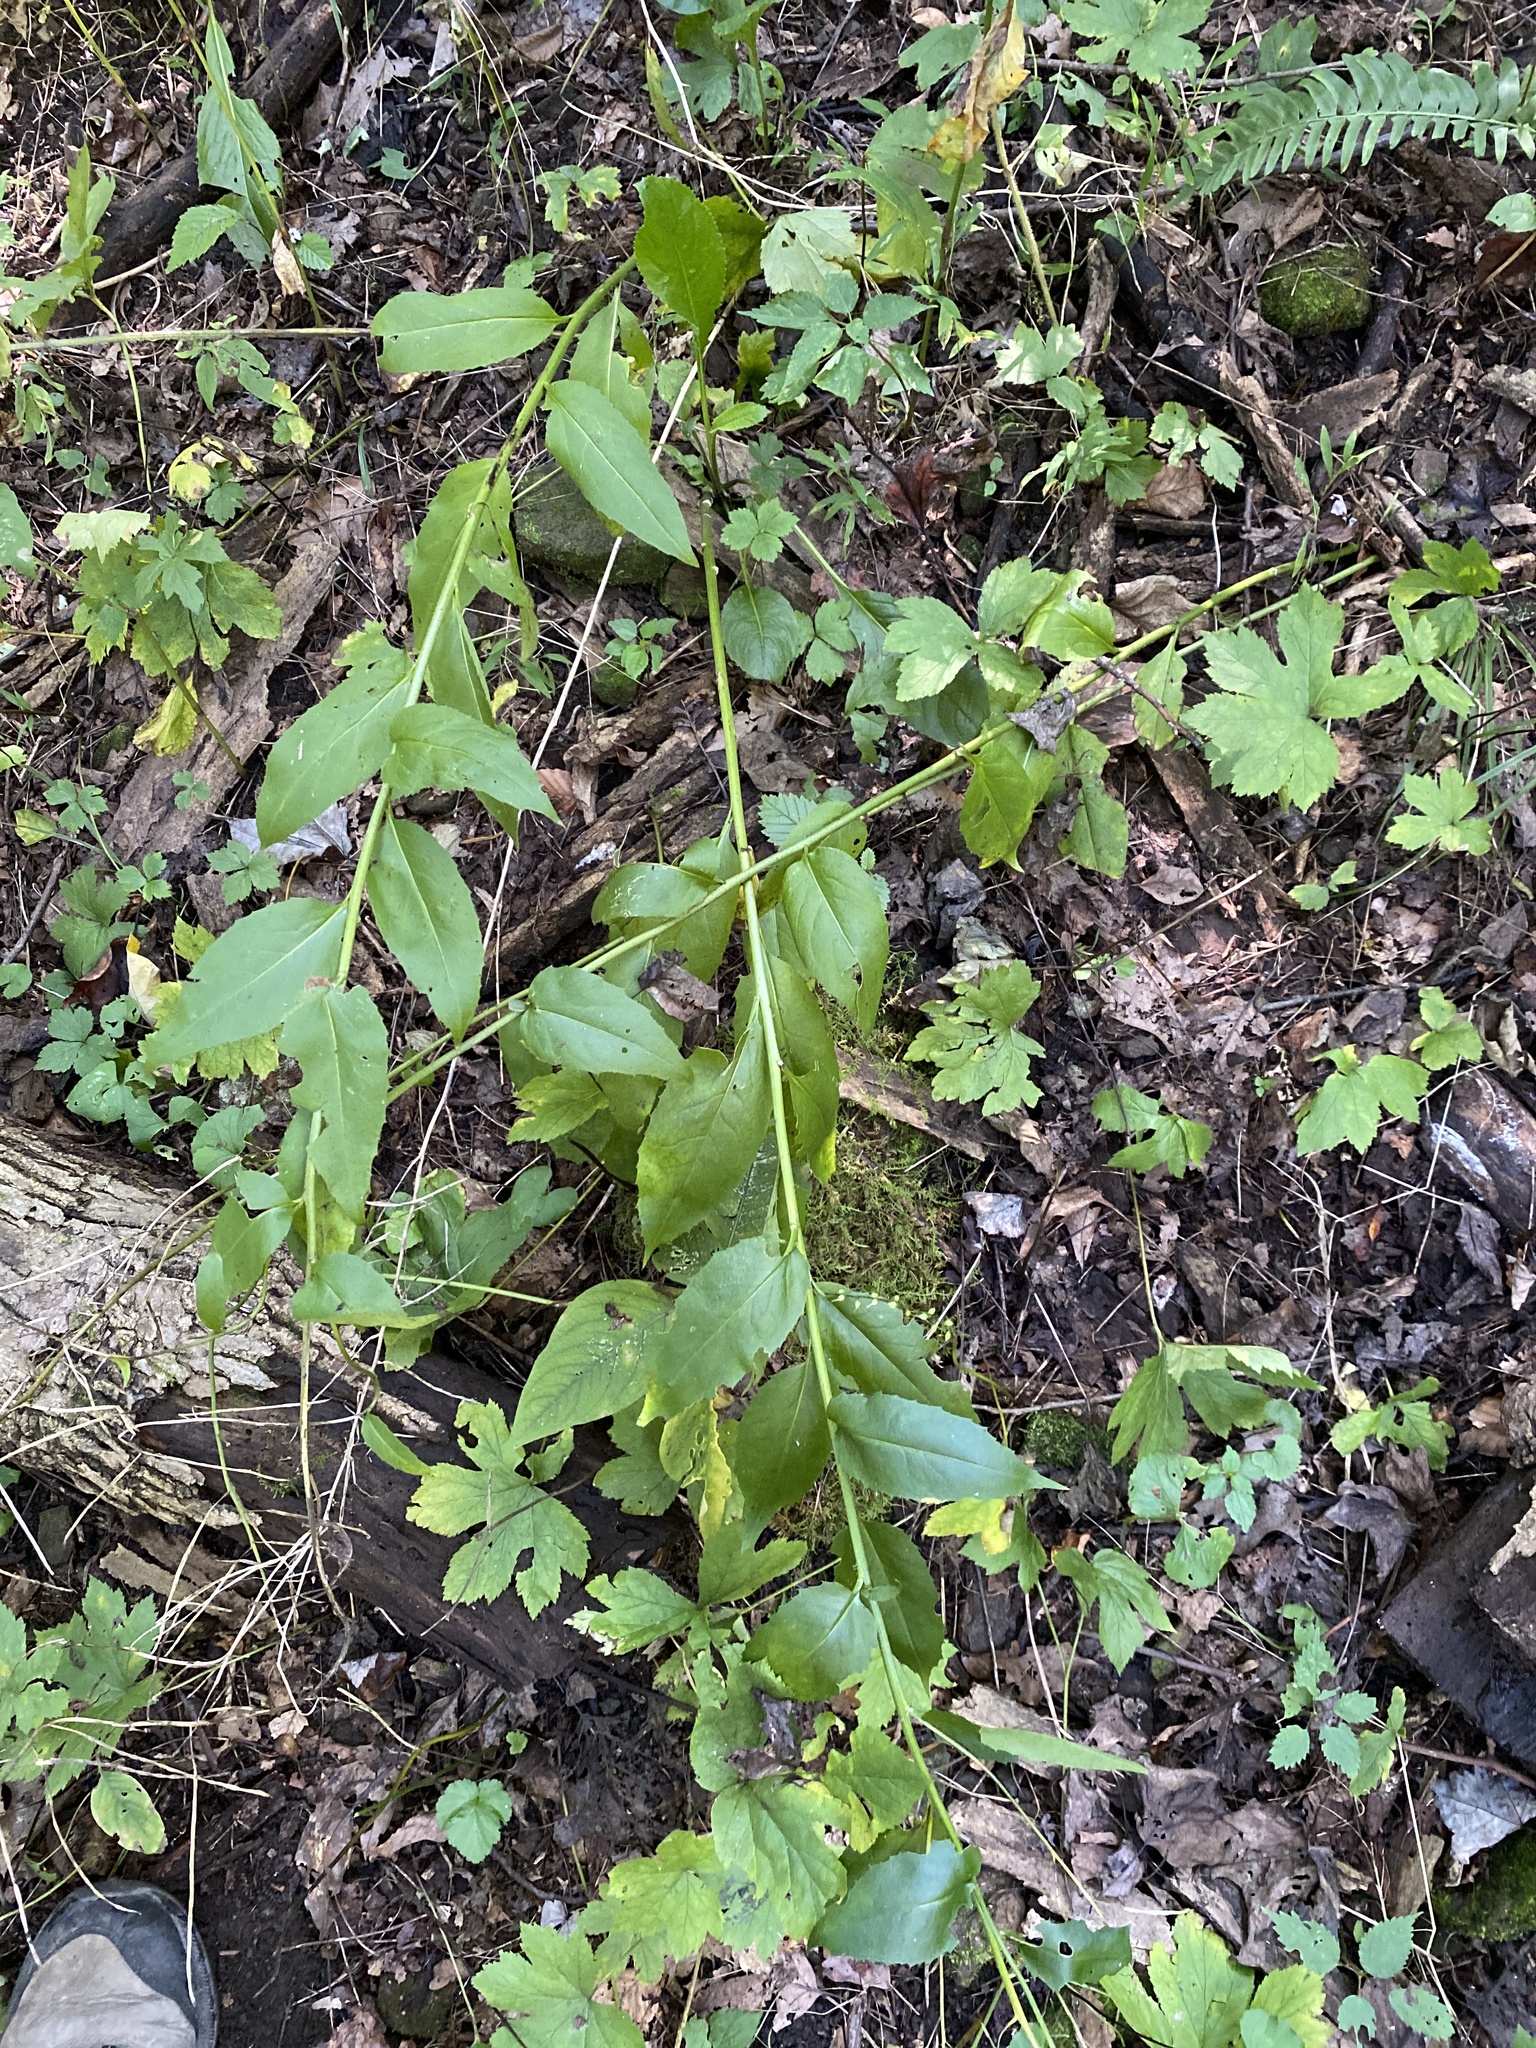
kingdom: Plantae
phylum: Tracheophyta
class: Magnoliopsida
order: Brassicales
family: Brassicaceae
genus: Hesperis
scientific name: Hesperis matronalis
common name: Dame's-violet
